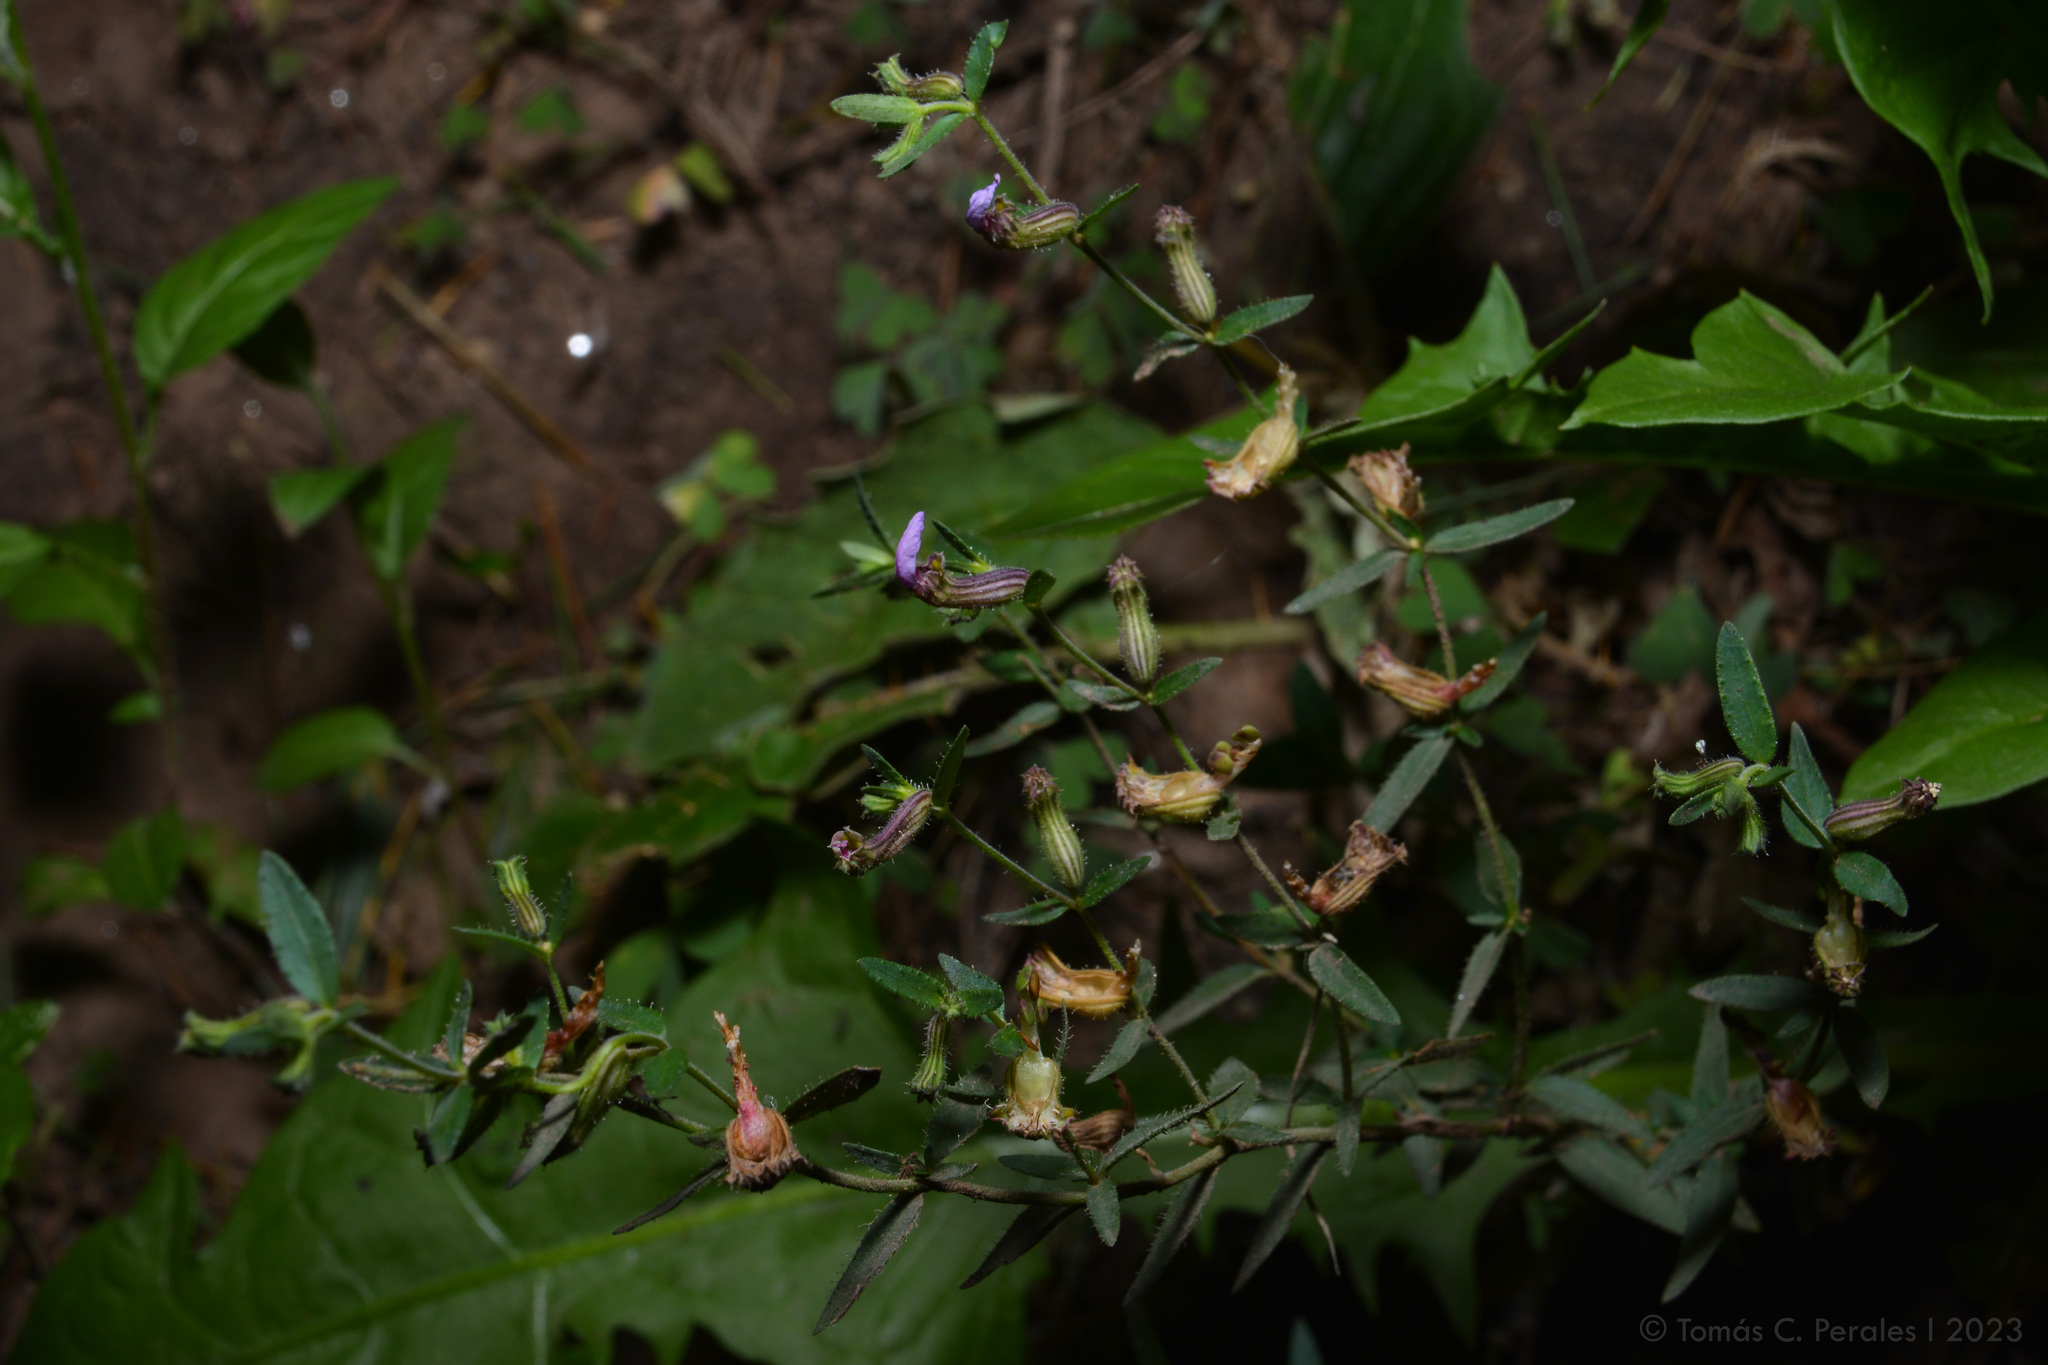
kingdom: Plantae
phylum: Tracheophyta
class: Magnoliopsida
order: Myrtales
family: Lythraceae
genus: Cuphea
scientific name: Cuphea glutinosa
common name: Sticky waxweed
